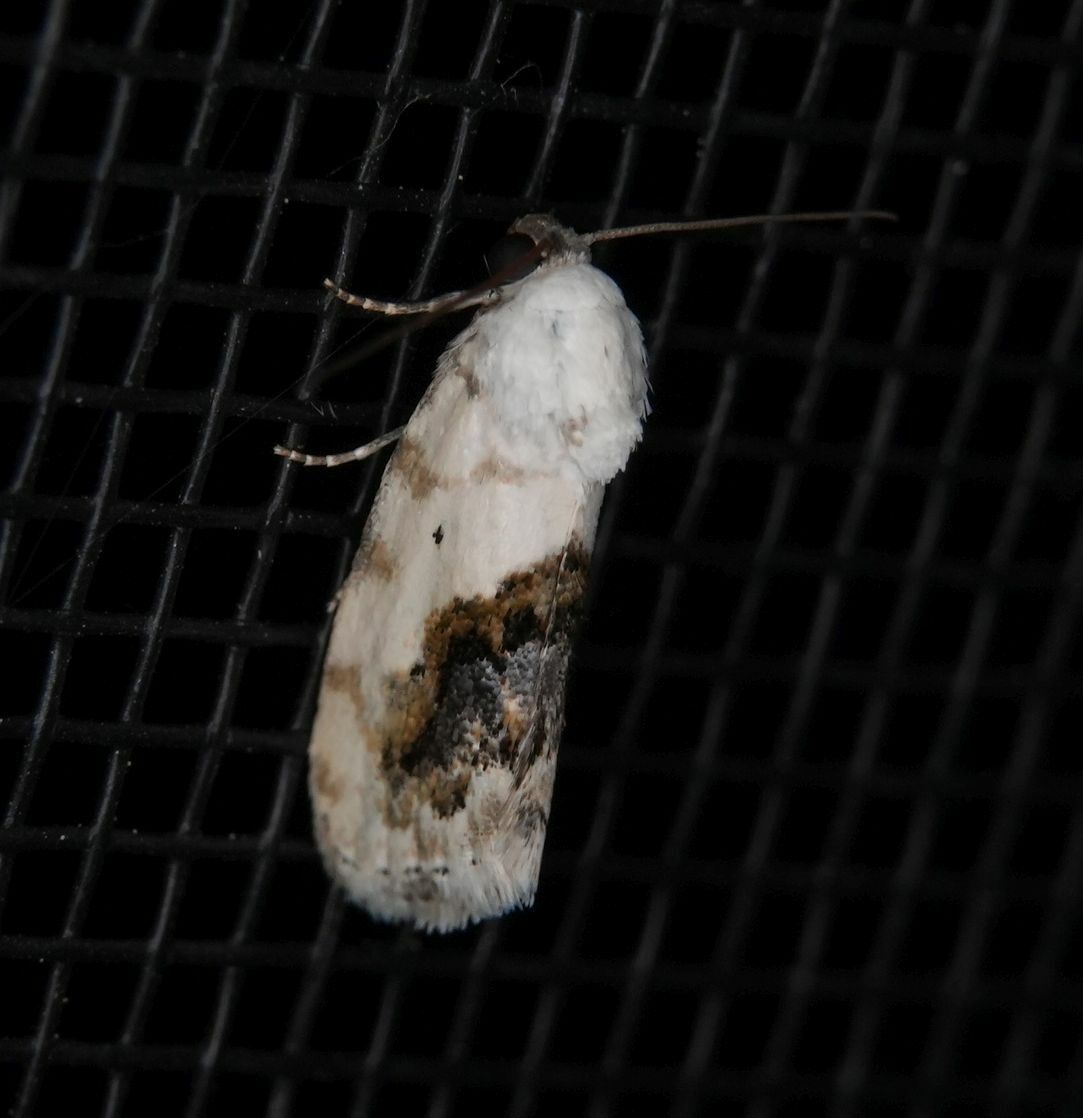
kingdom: Animalia
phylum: Arthropoda
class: Insecta
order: Lepidoptera
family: Noctuidae
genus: Acontia
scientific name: Acontia erastrioides
